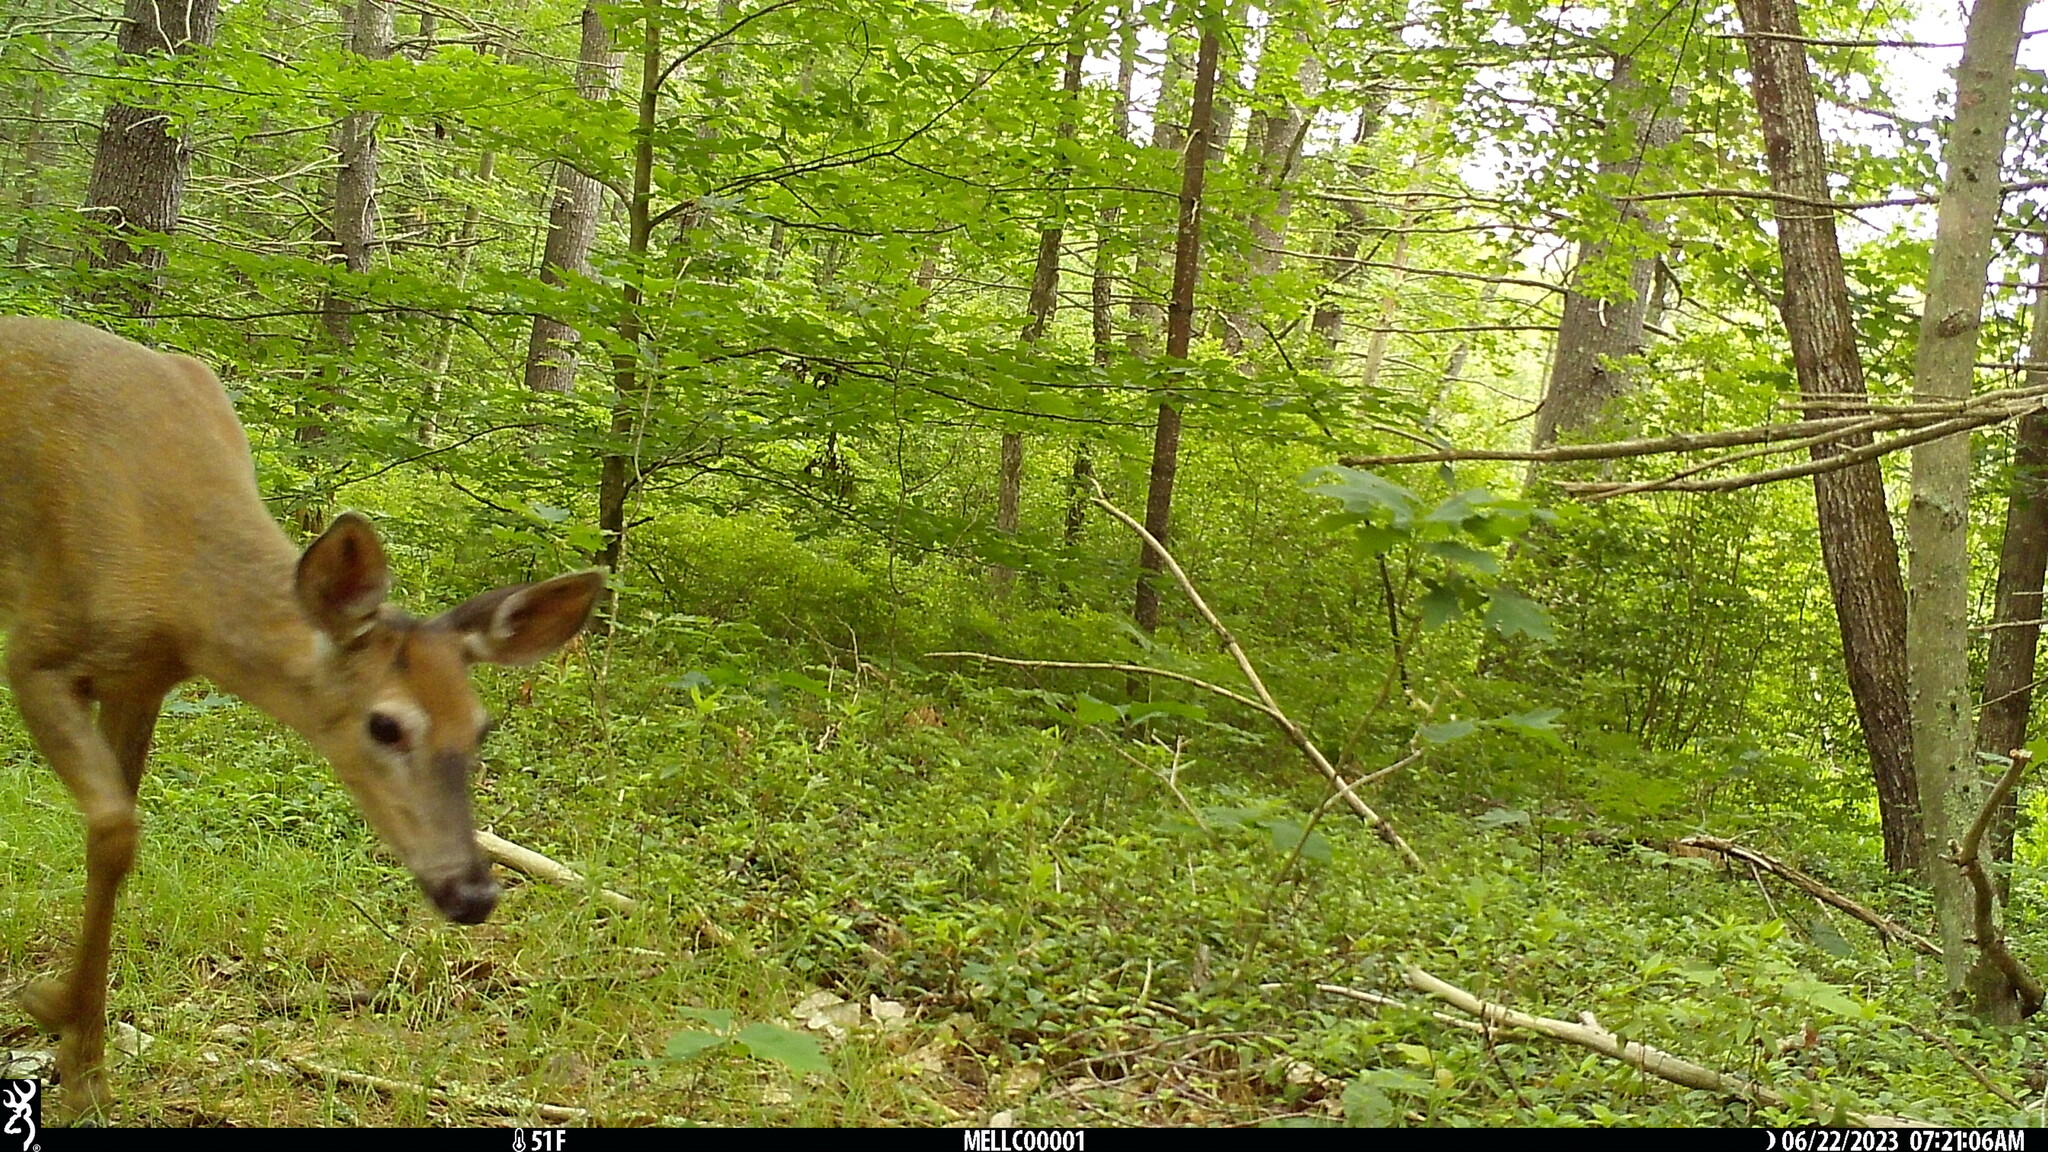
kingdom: Animalia
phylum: Chordata
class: Mammalia
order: Artiodactyla
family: Cervidae
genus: Odocoileus
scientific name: Odocoileus virginianus
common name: White-tailed deer
